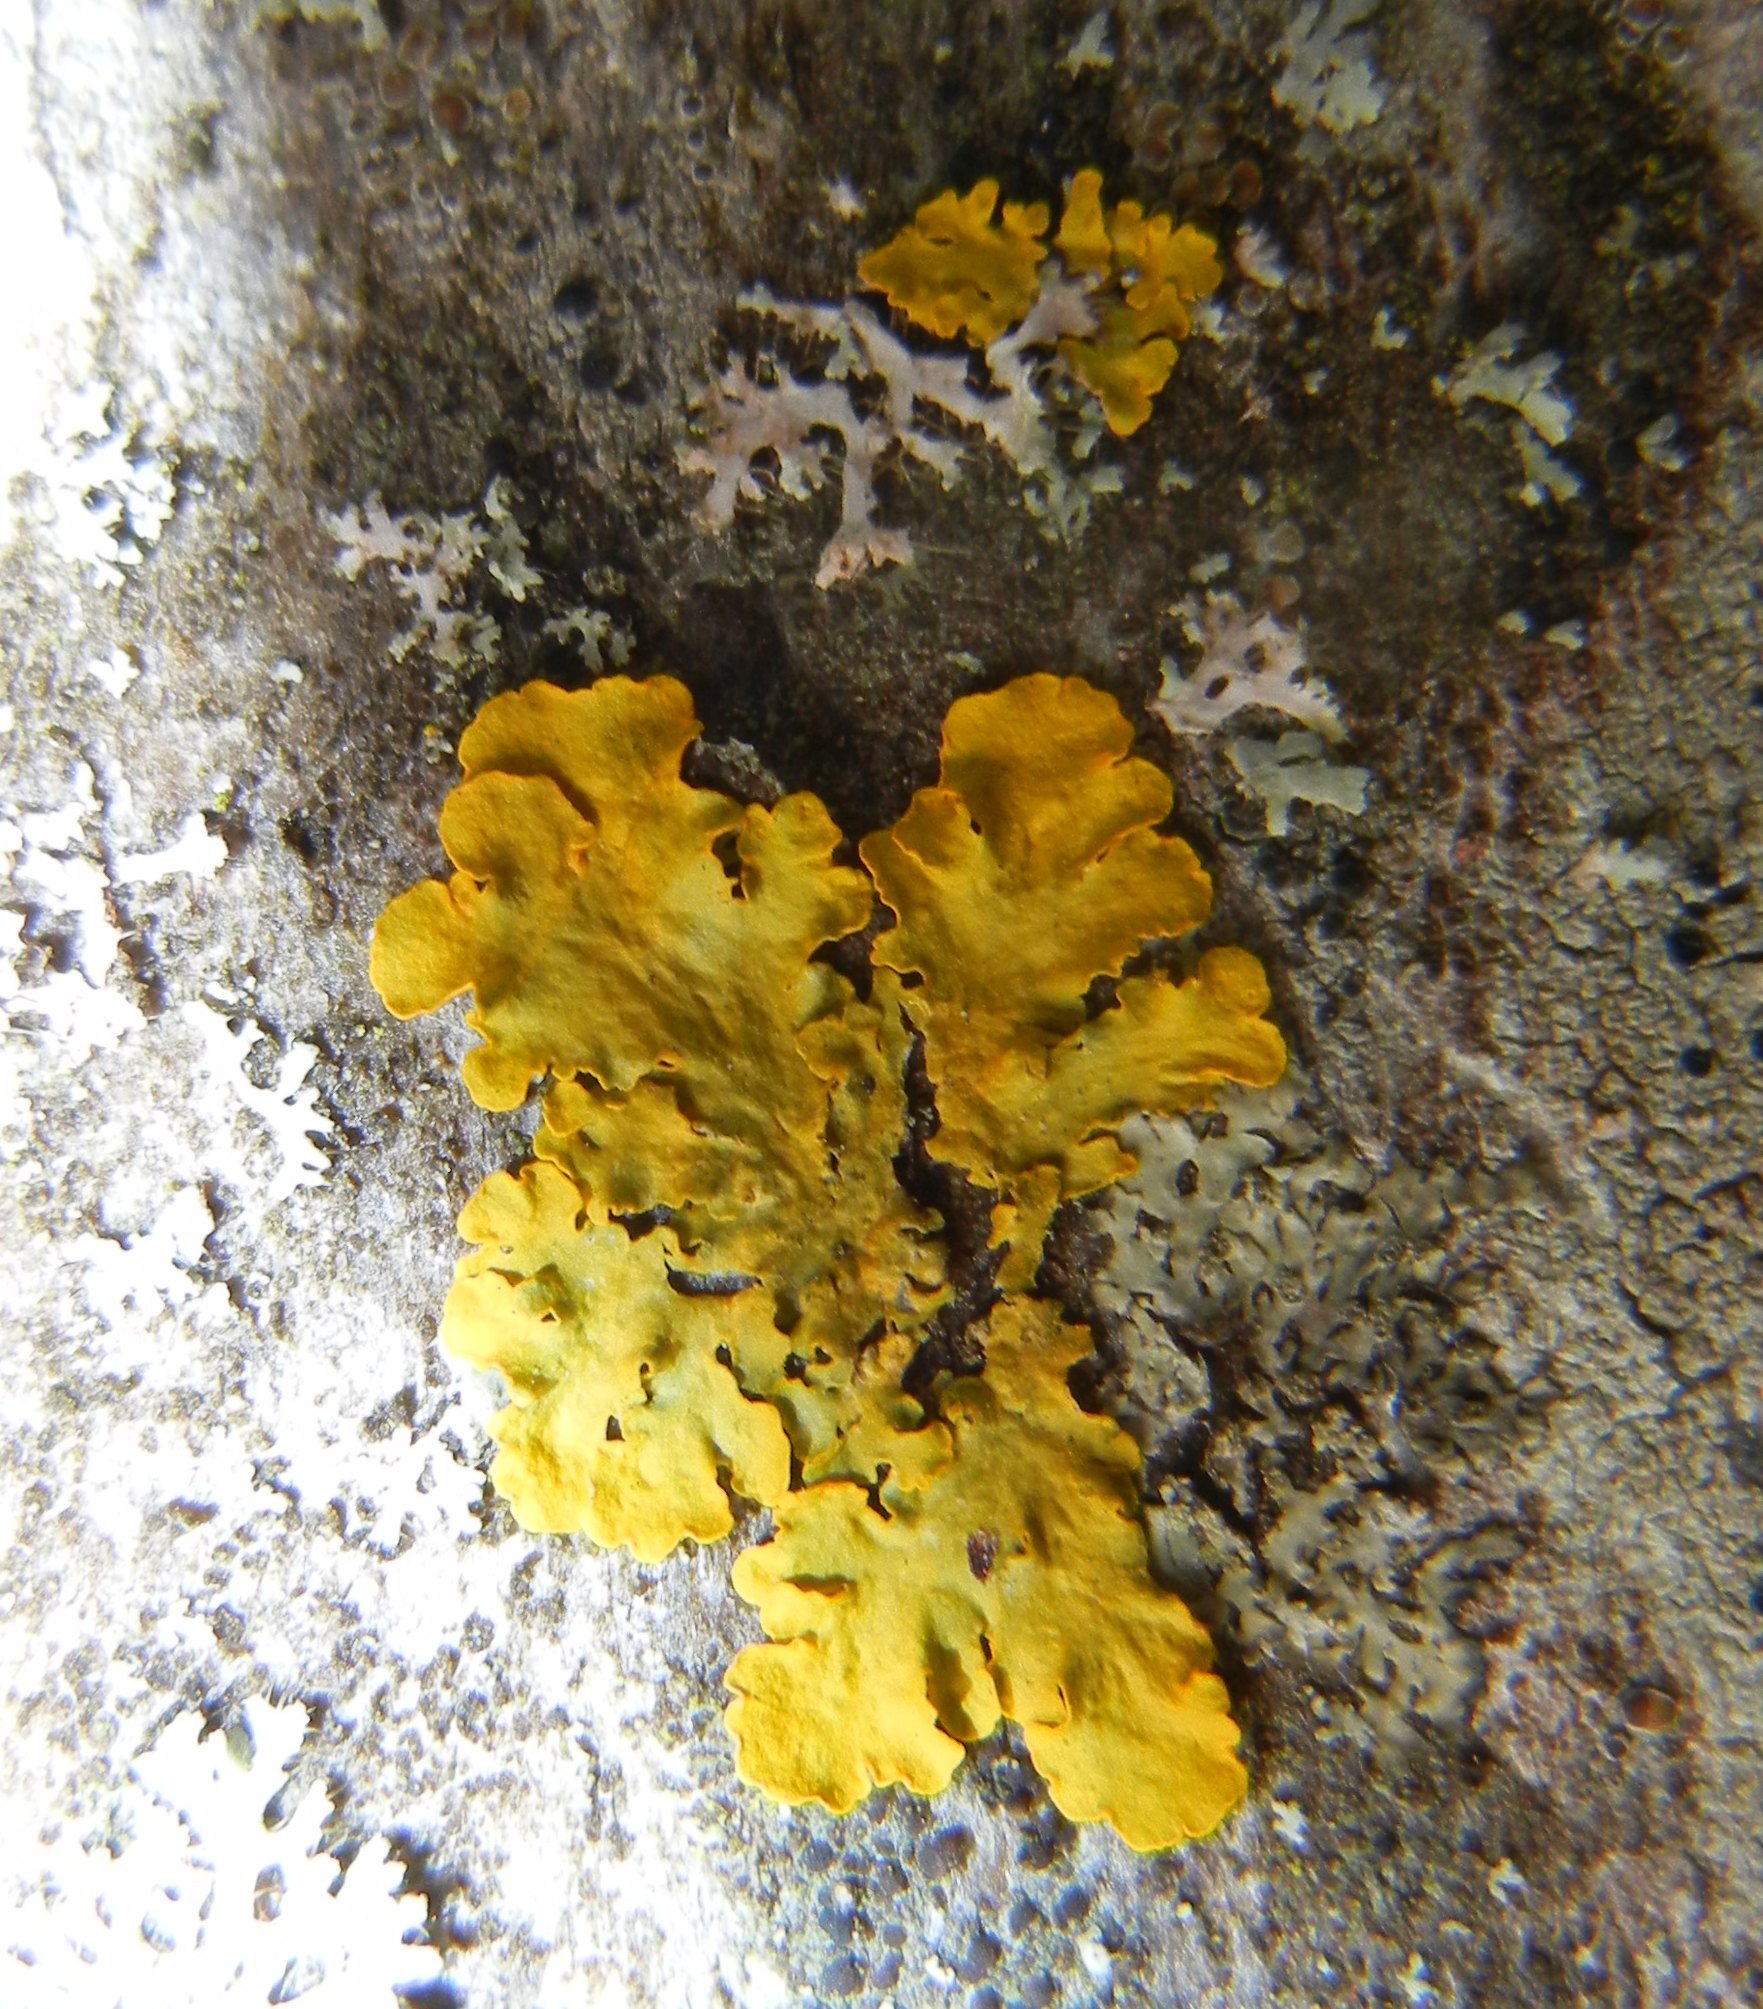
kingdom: Fungi
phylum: Ascomycota
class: Lecanoromycetes
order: Teloschistales
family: Teloschistaceae
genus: Xanthoria
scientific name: Xanthoria parietina
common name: Common orange lichen
